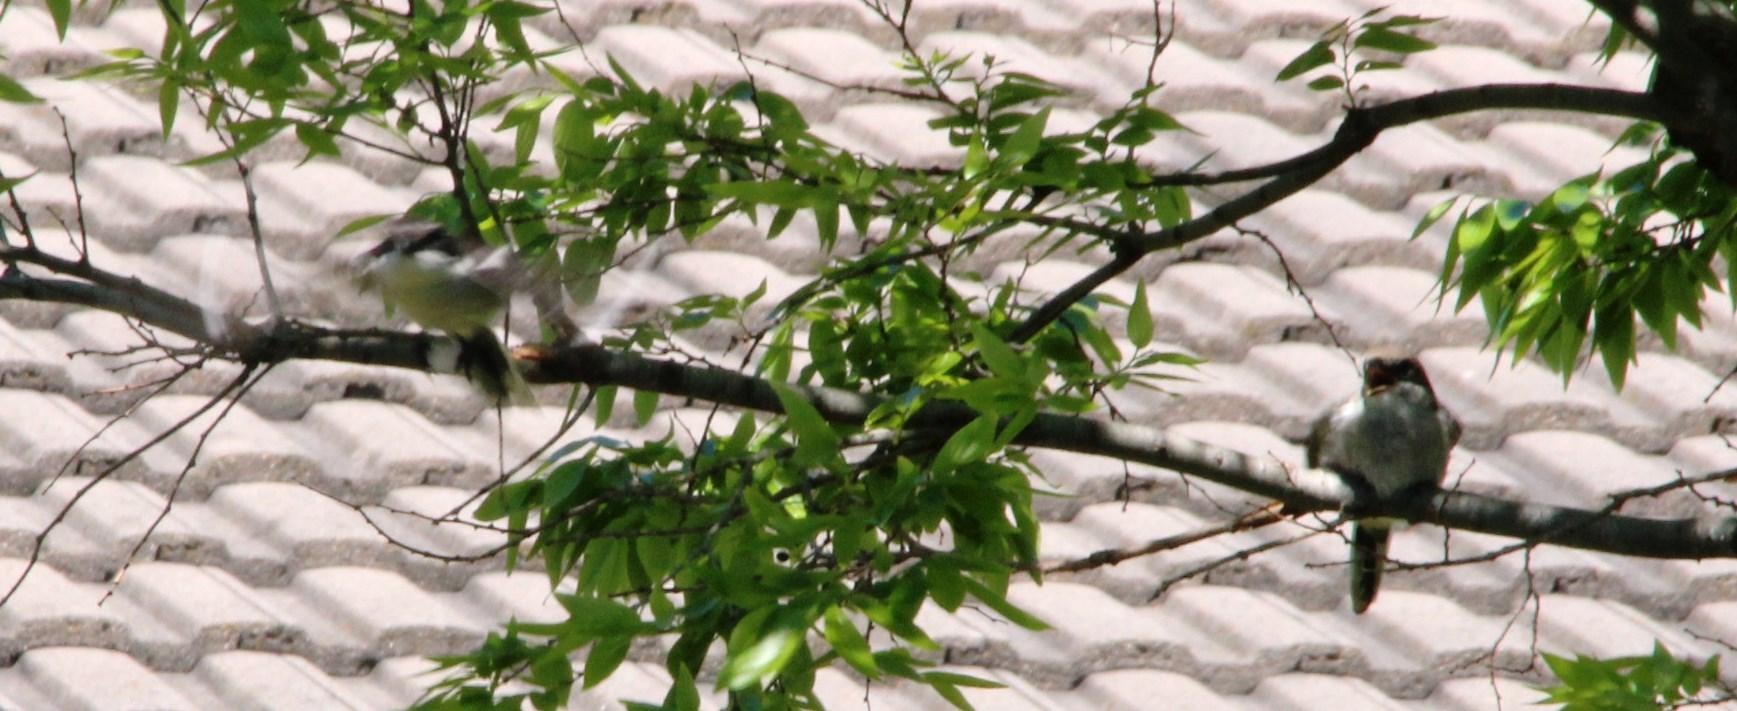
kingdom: Animalia
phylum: Chordata
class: Aves
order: Passeriformes
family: Laniidae
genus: Lanius
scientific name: Lanius collaris
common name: Southern fiscal
